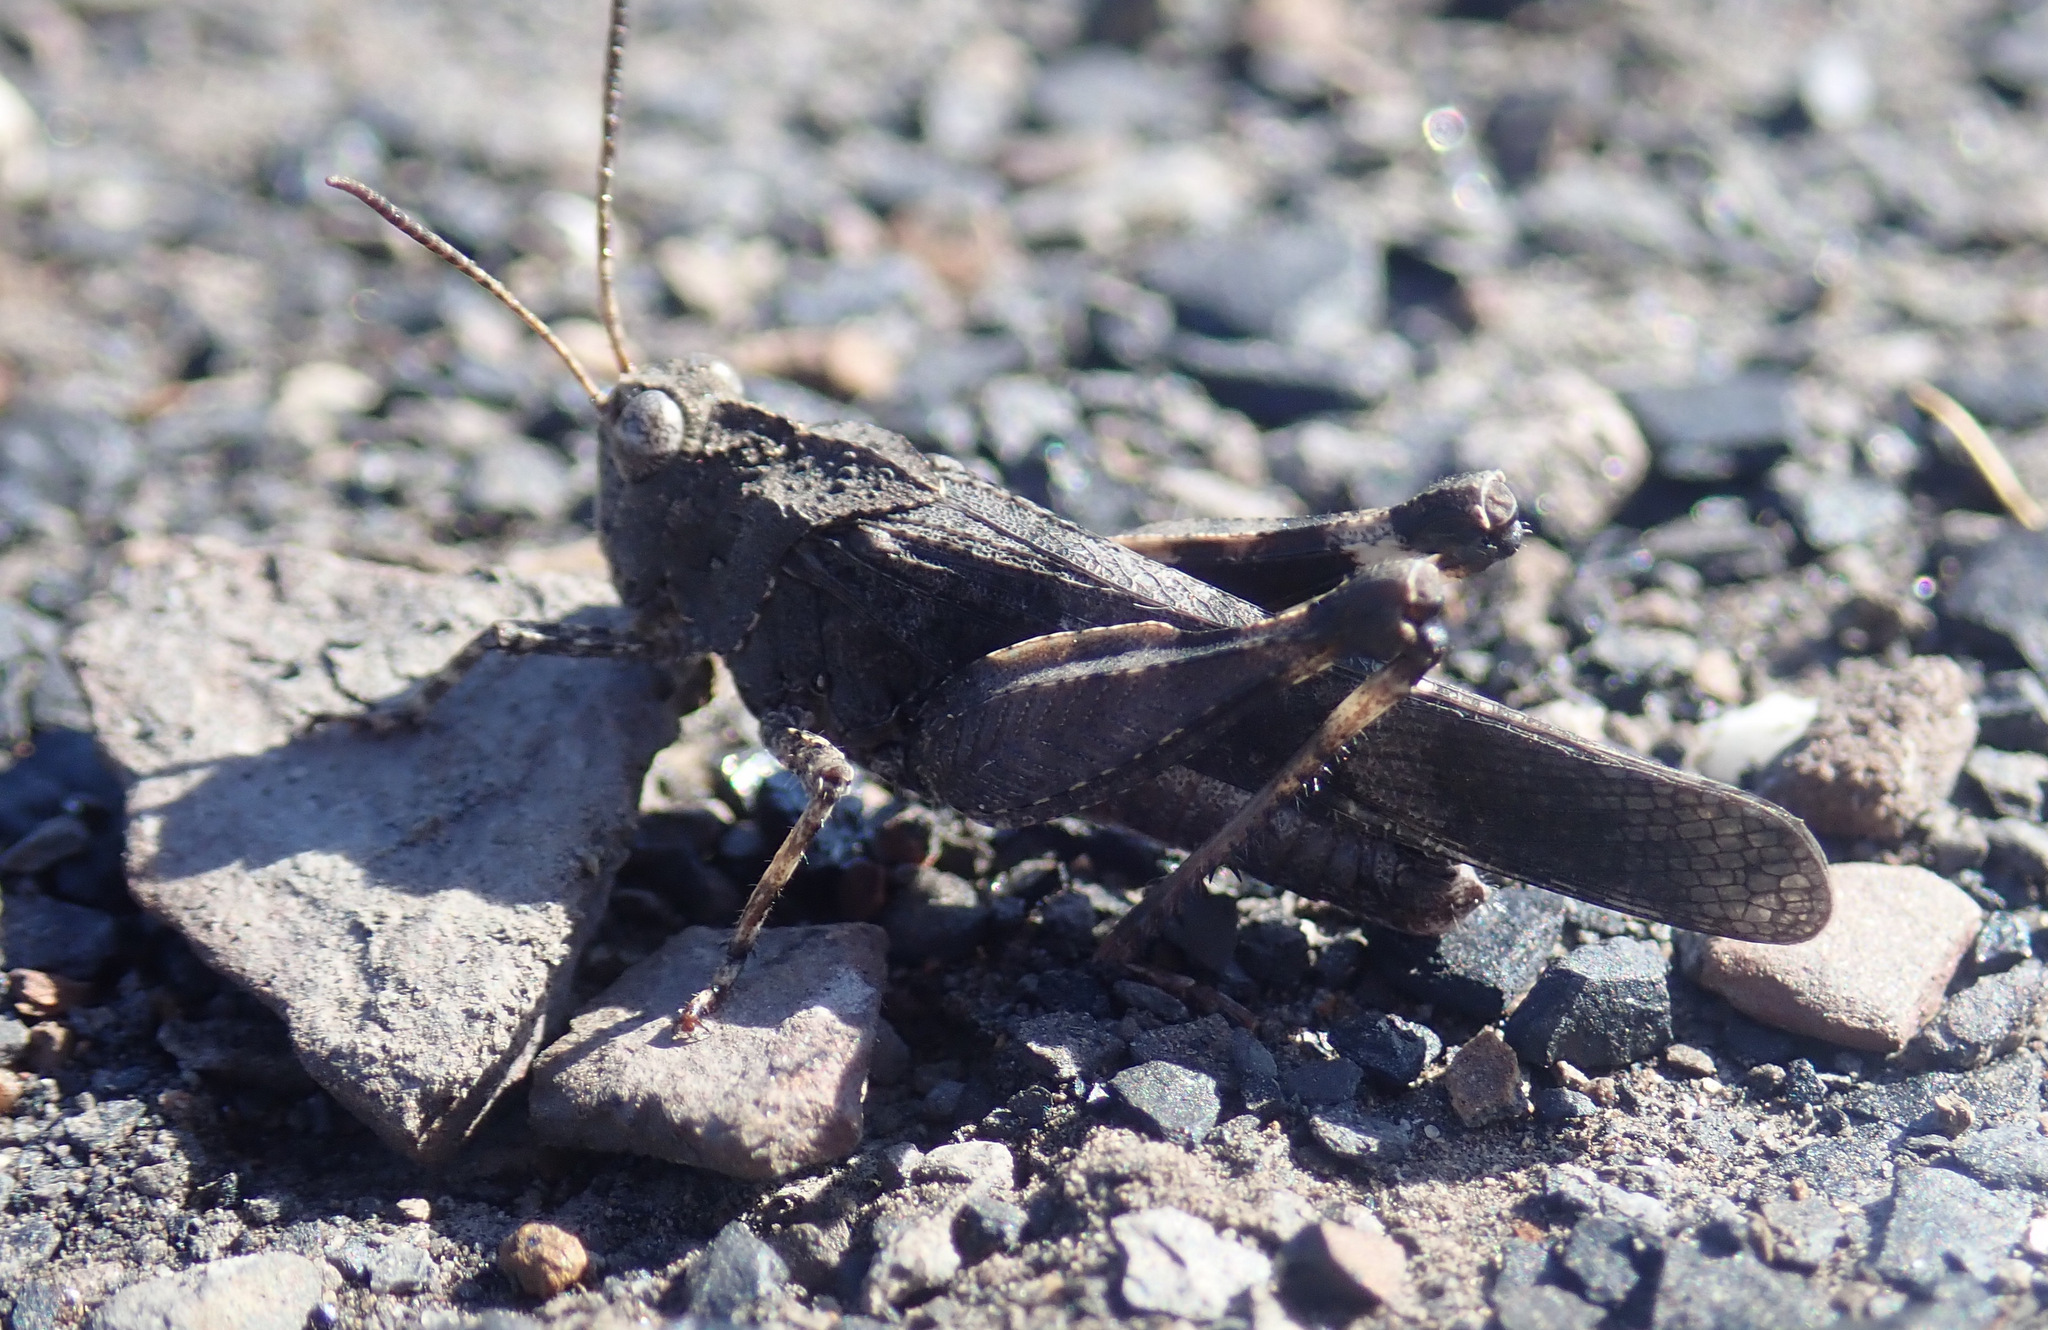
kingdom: Animalia
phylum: Arthropoda
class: Insecta
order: Orthoptera
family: Acrididae
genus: Oedipoda
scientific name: Oedipoda caerulescens
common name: Blue-winged grasshopper
